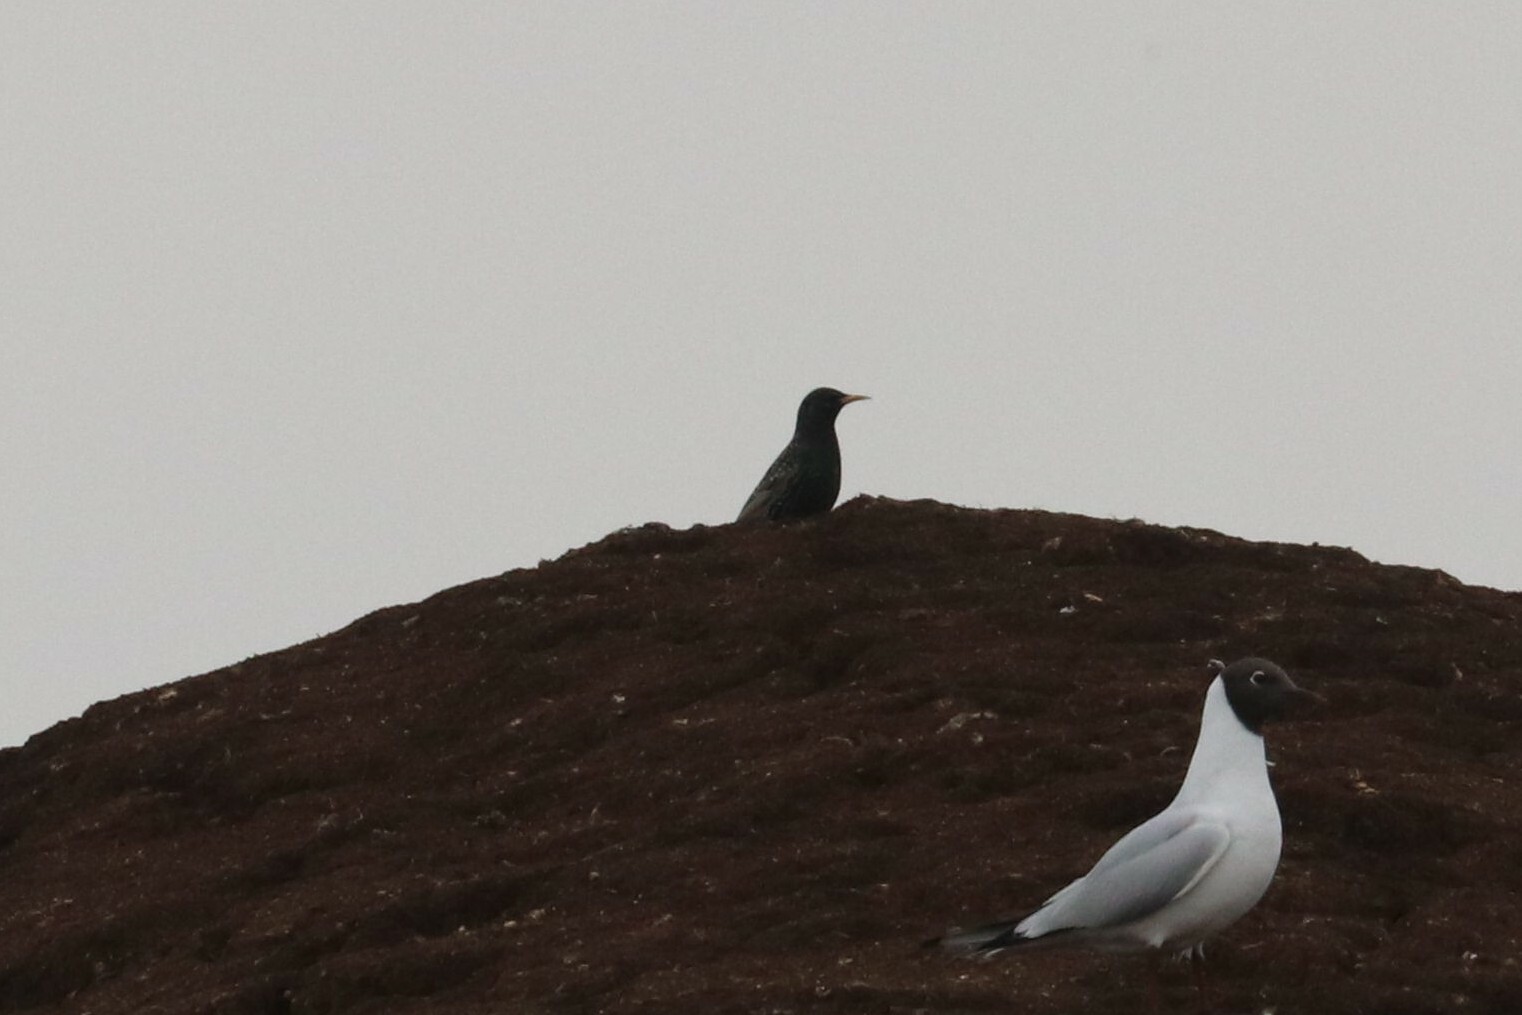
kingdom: Animalia
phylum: Chordata
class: Aves
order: Passeriformes
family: Sturnidae
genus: Sturnus
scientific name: Sturnus vulgaris
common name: Common starling
